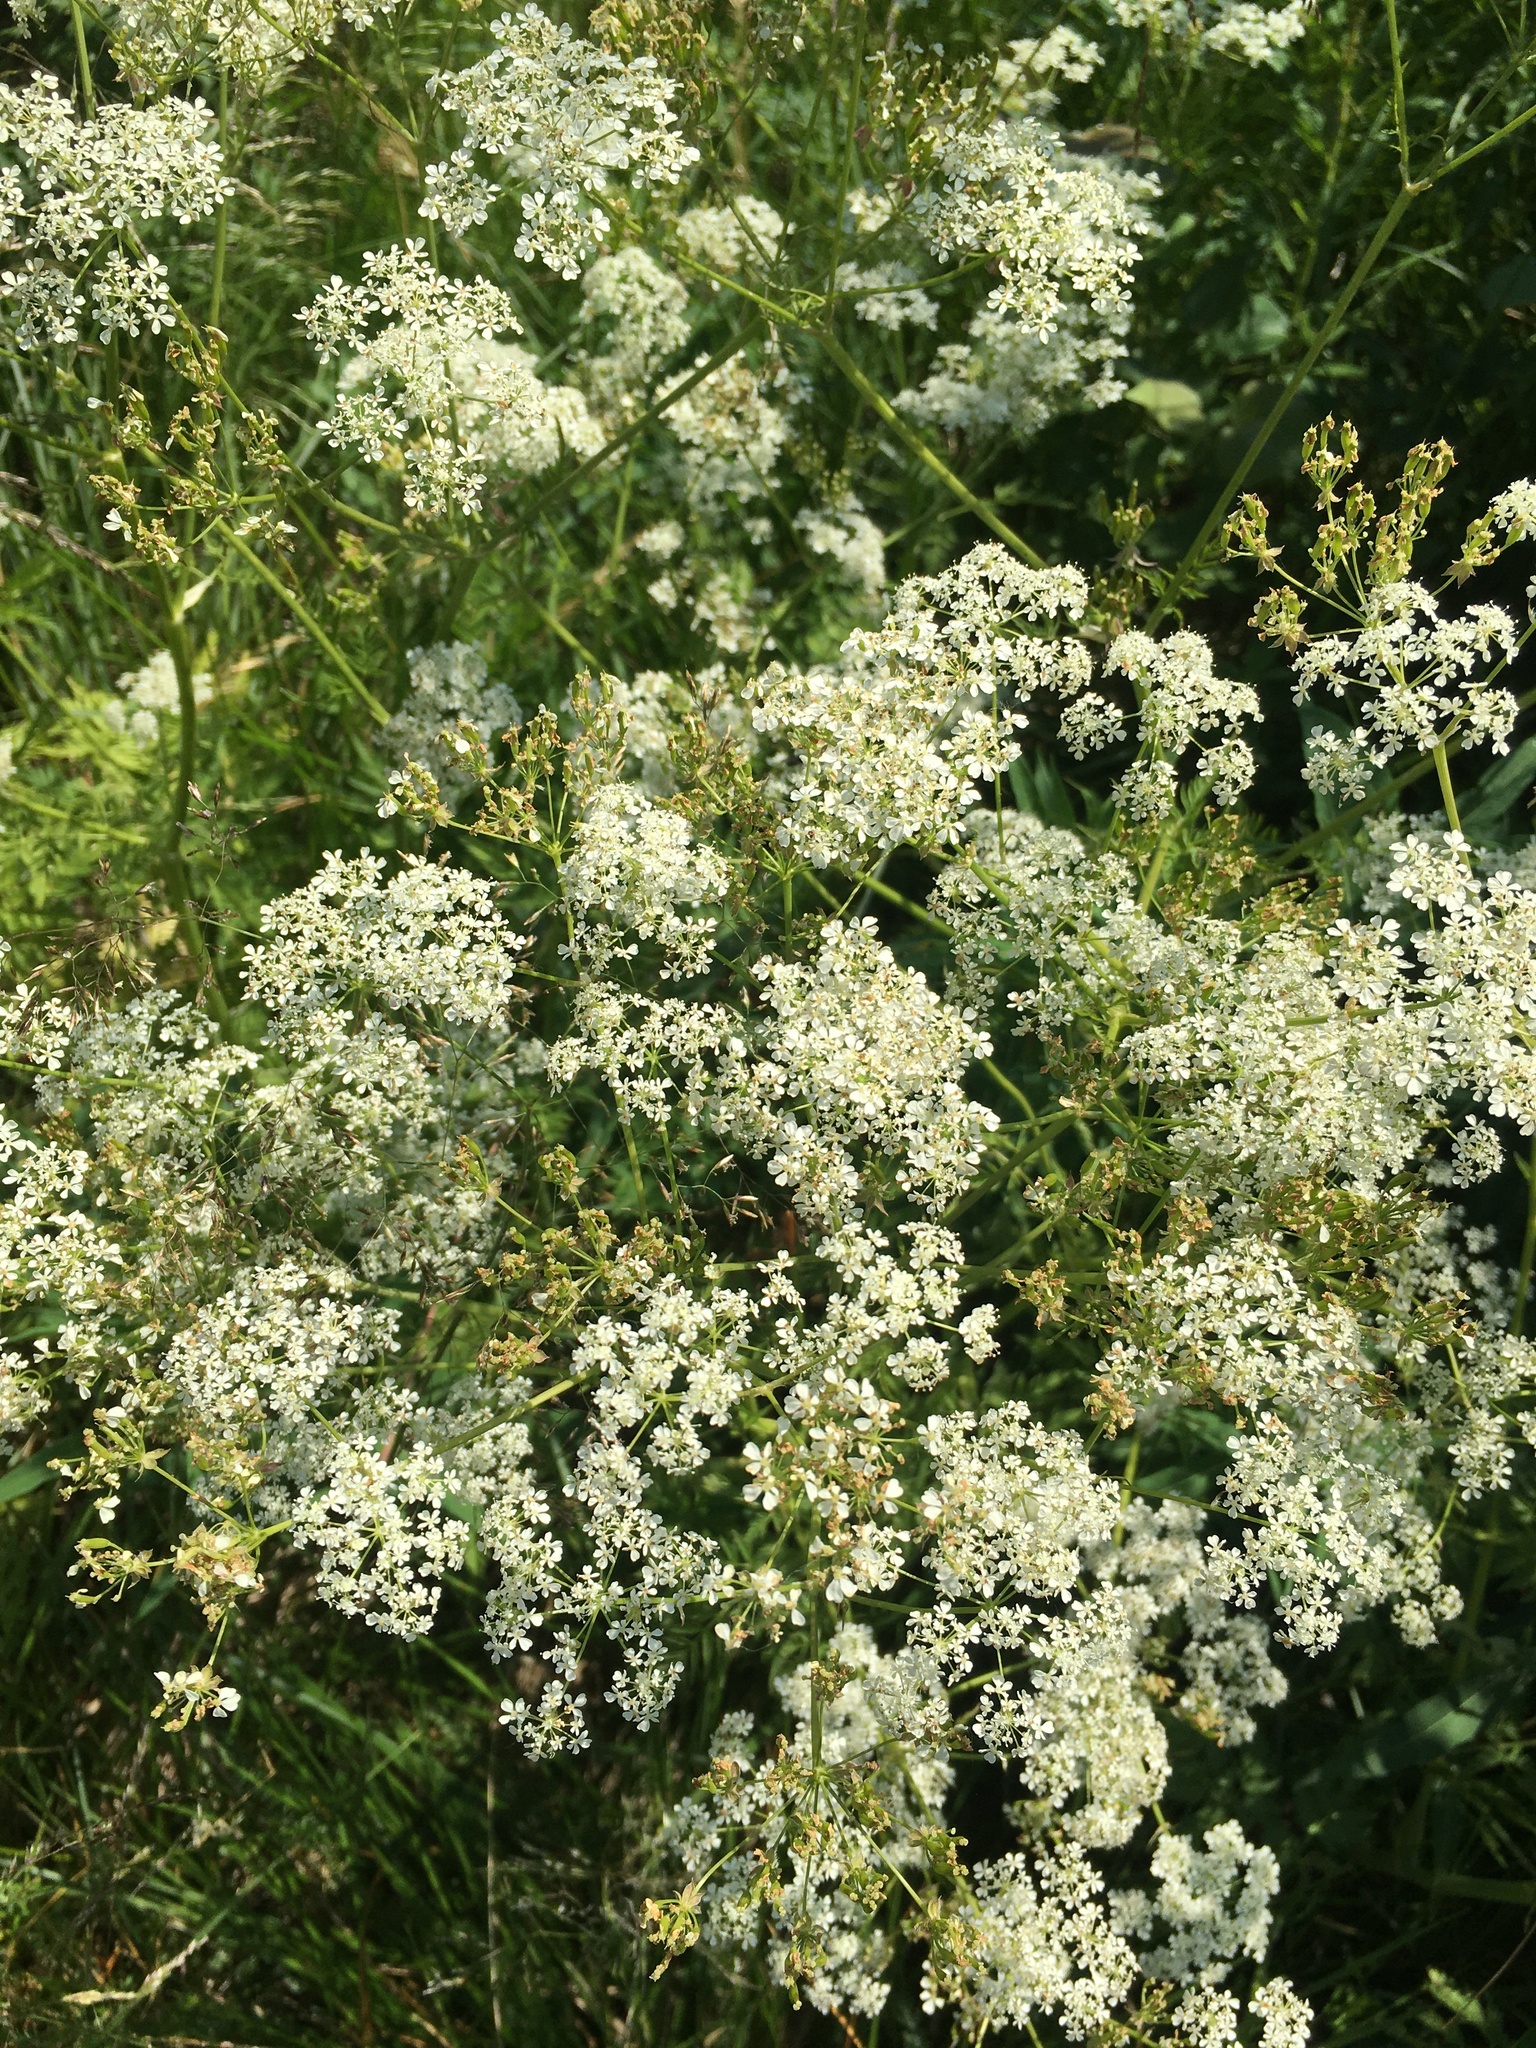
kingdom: Plantae
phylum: Tracheophyta
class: Magnoliopsida
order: Apiales
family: Apiaceae
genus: Anthriscus
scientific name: Anthriscus sylvestris
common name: Cow parsley
